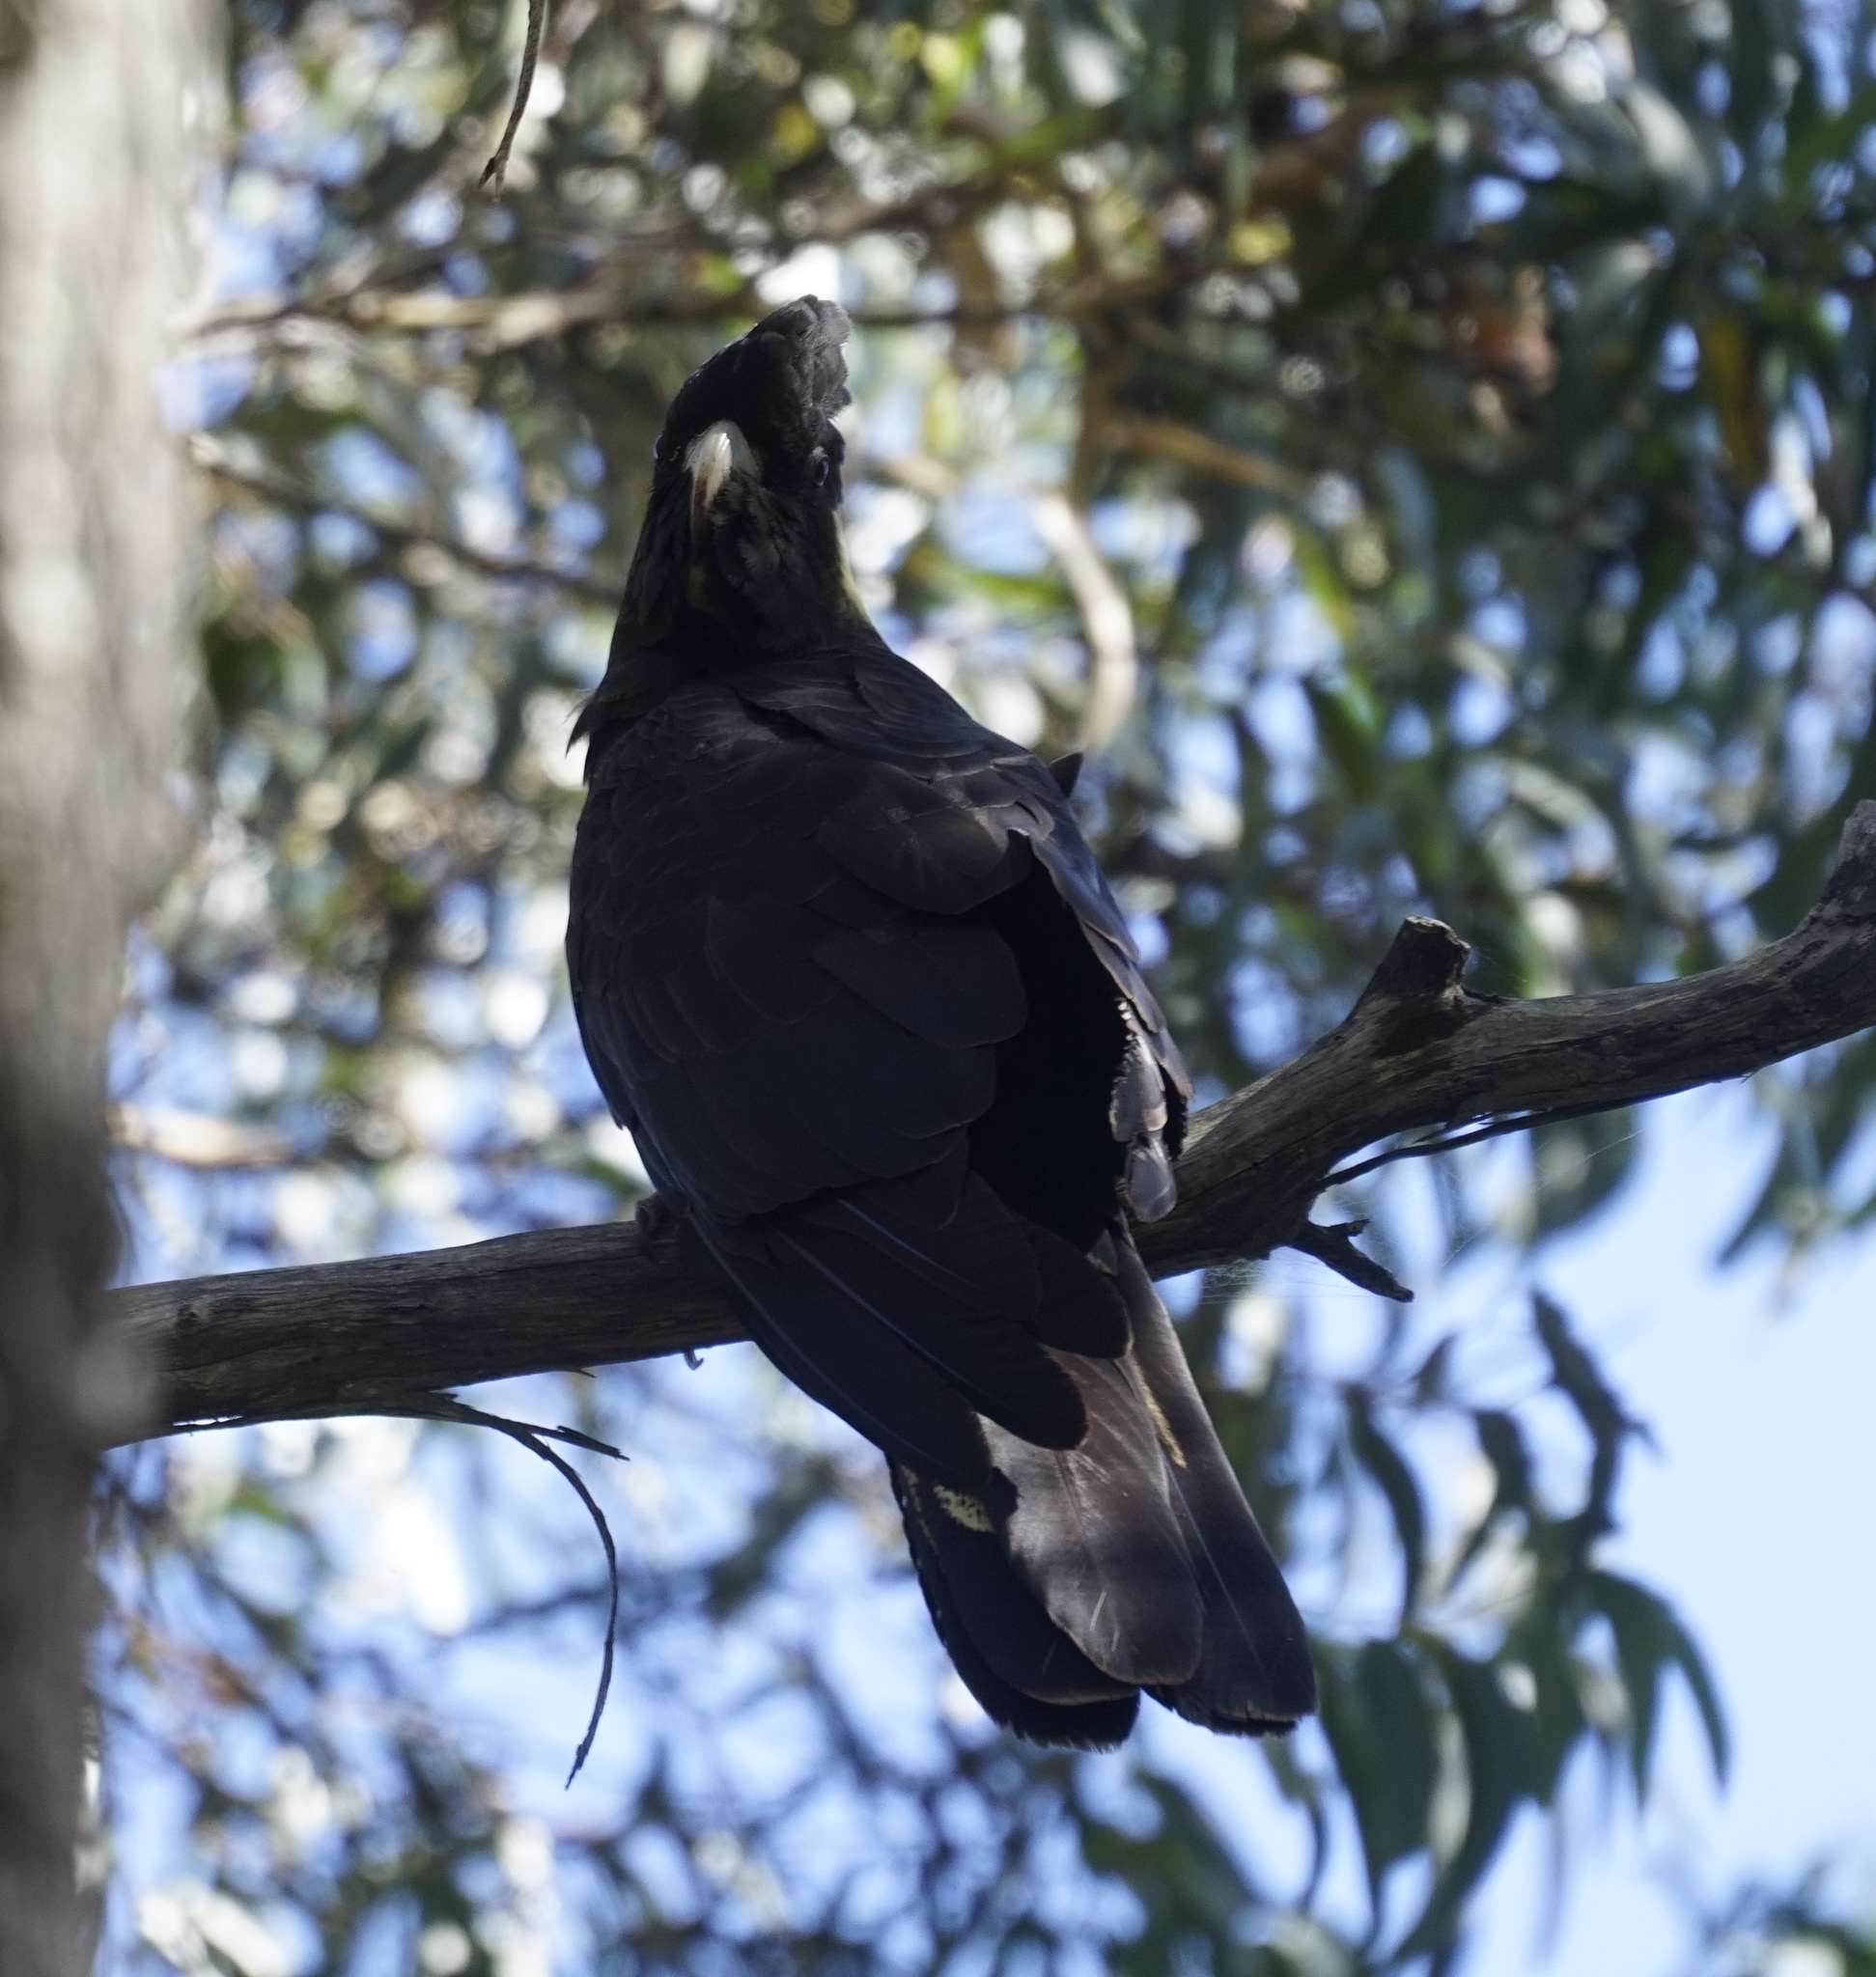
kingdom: Animalia
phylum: Chordata
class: Aves
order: Psittaciformes
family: Cacatuidae
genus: Zanda
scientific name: Zanda funerea
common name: Yellow-tailed black-cockatoo
